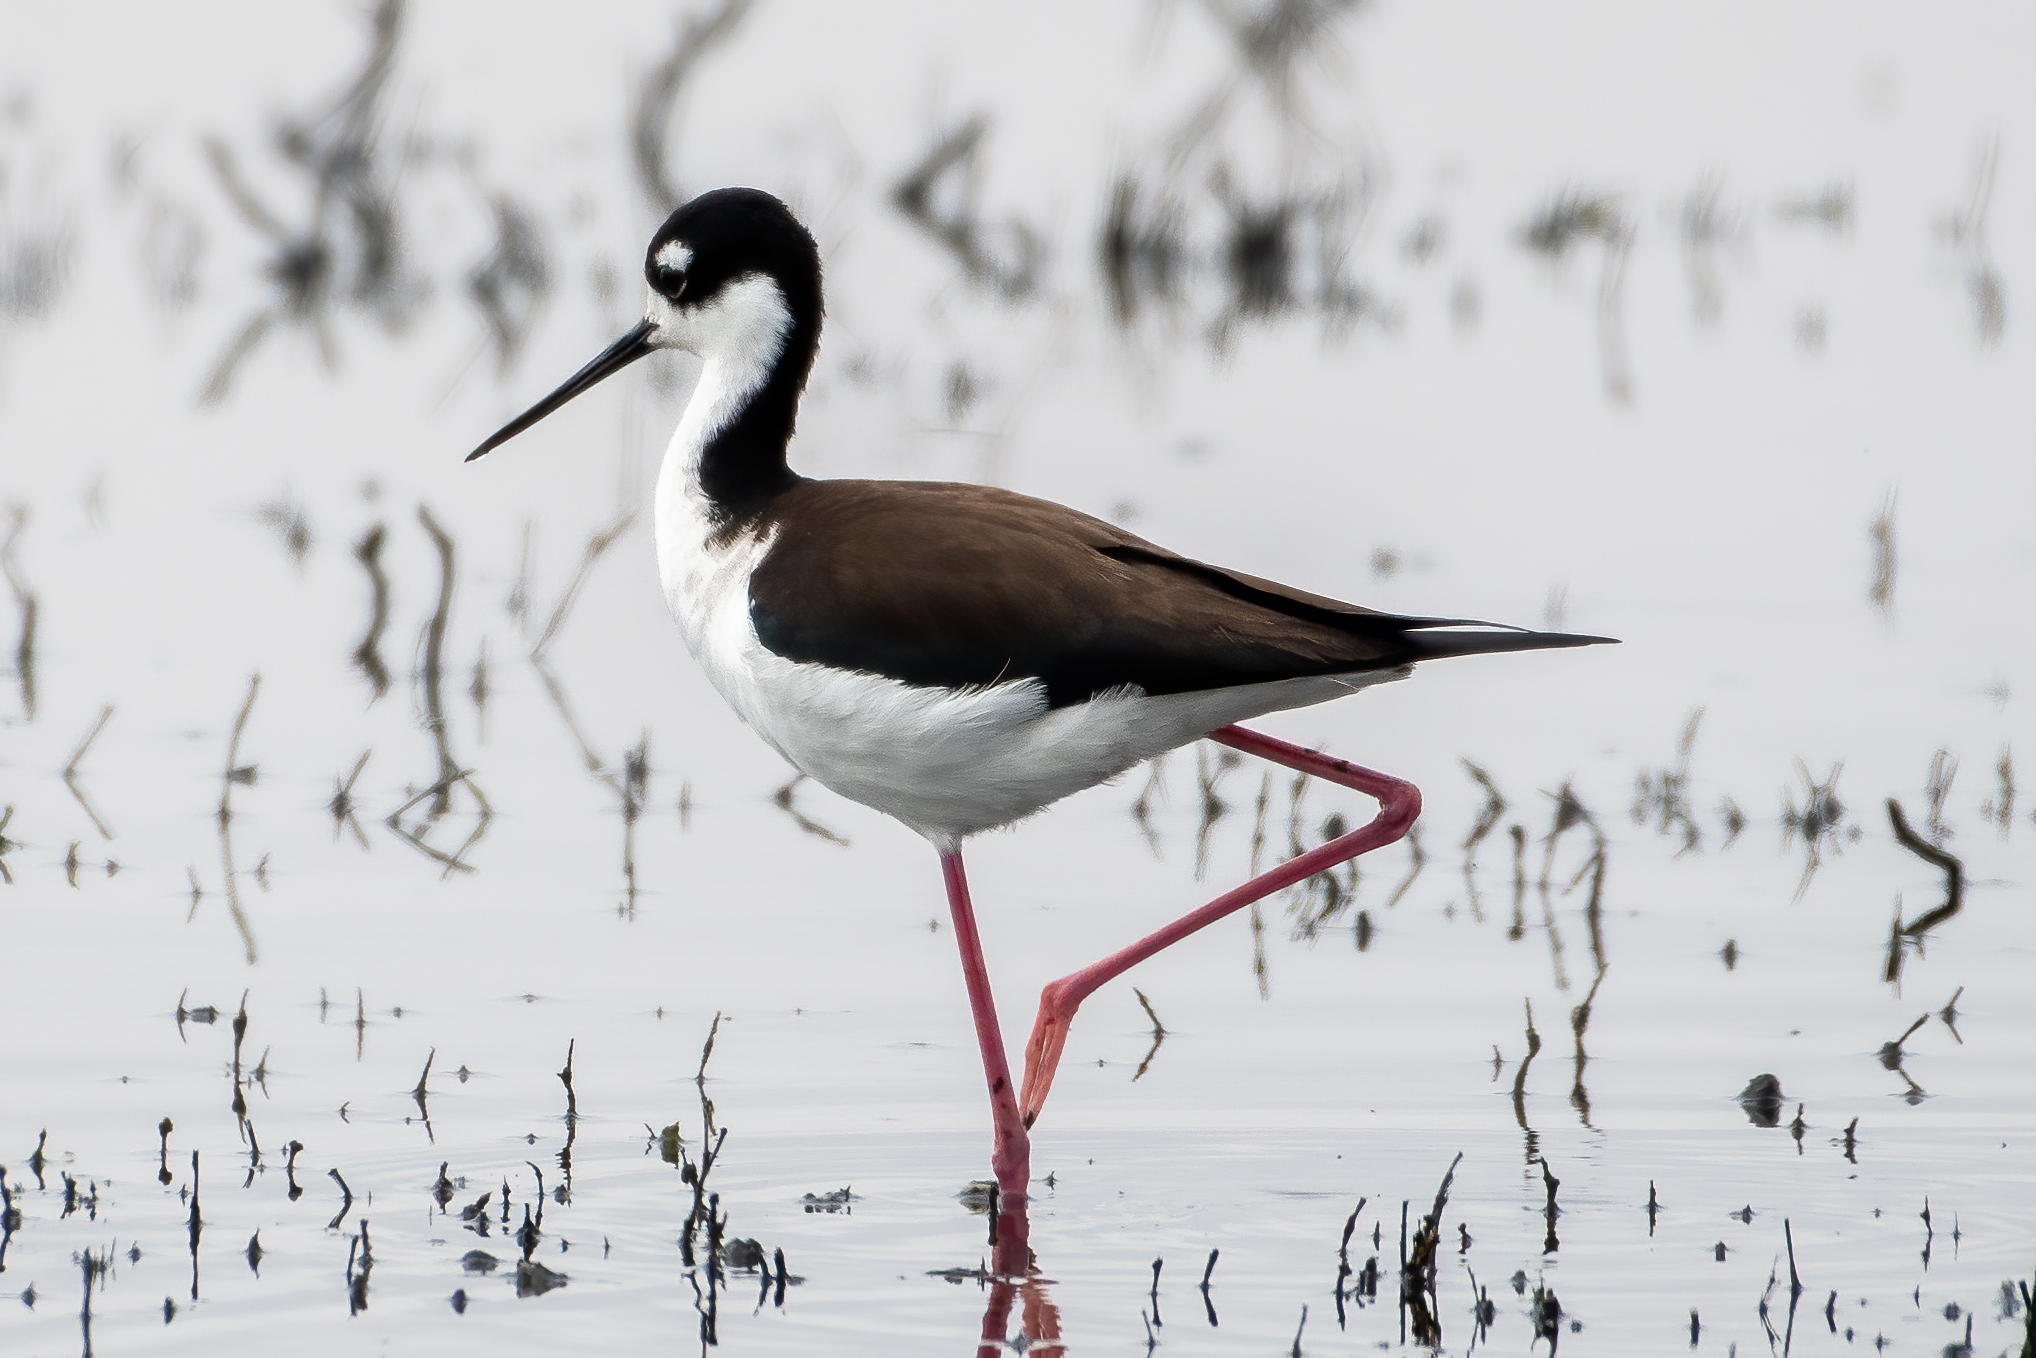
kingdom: Animalia
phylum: Chordata
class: Aves
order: Charadriiformes
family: Recurvirostridae
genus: Himantopus
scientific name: Himantopus mexicanus
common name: Black-necked stilt
